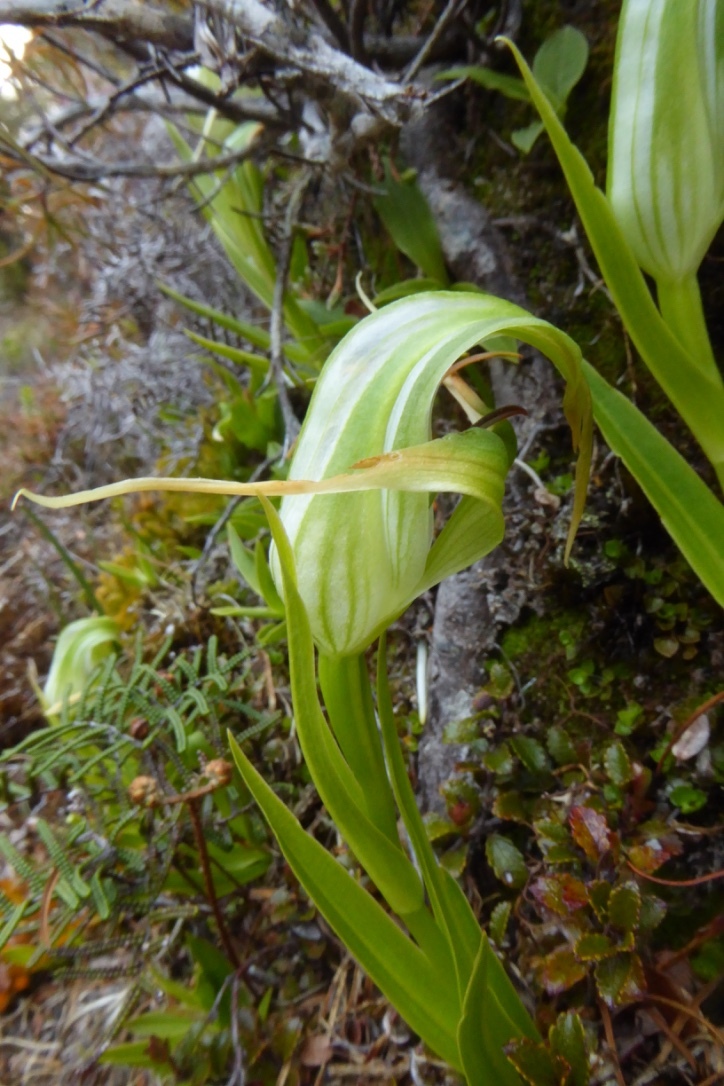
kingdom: Plantae
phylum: Tracheophyta
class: Liliopsida
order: Asparagales
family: Orchidaceae
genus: Pterostylis
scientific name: Pterostylis patens
